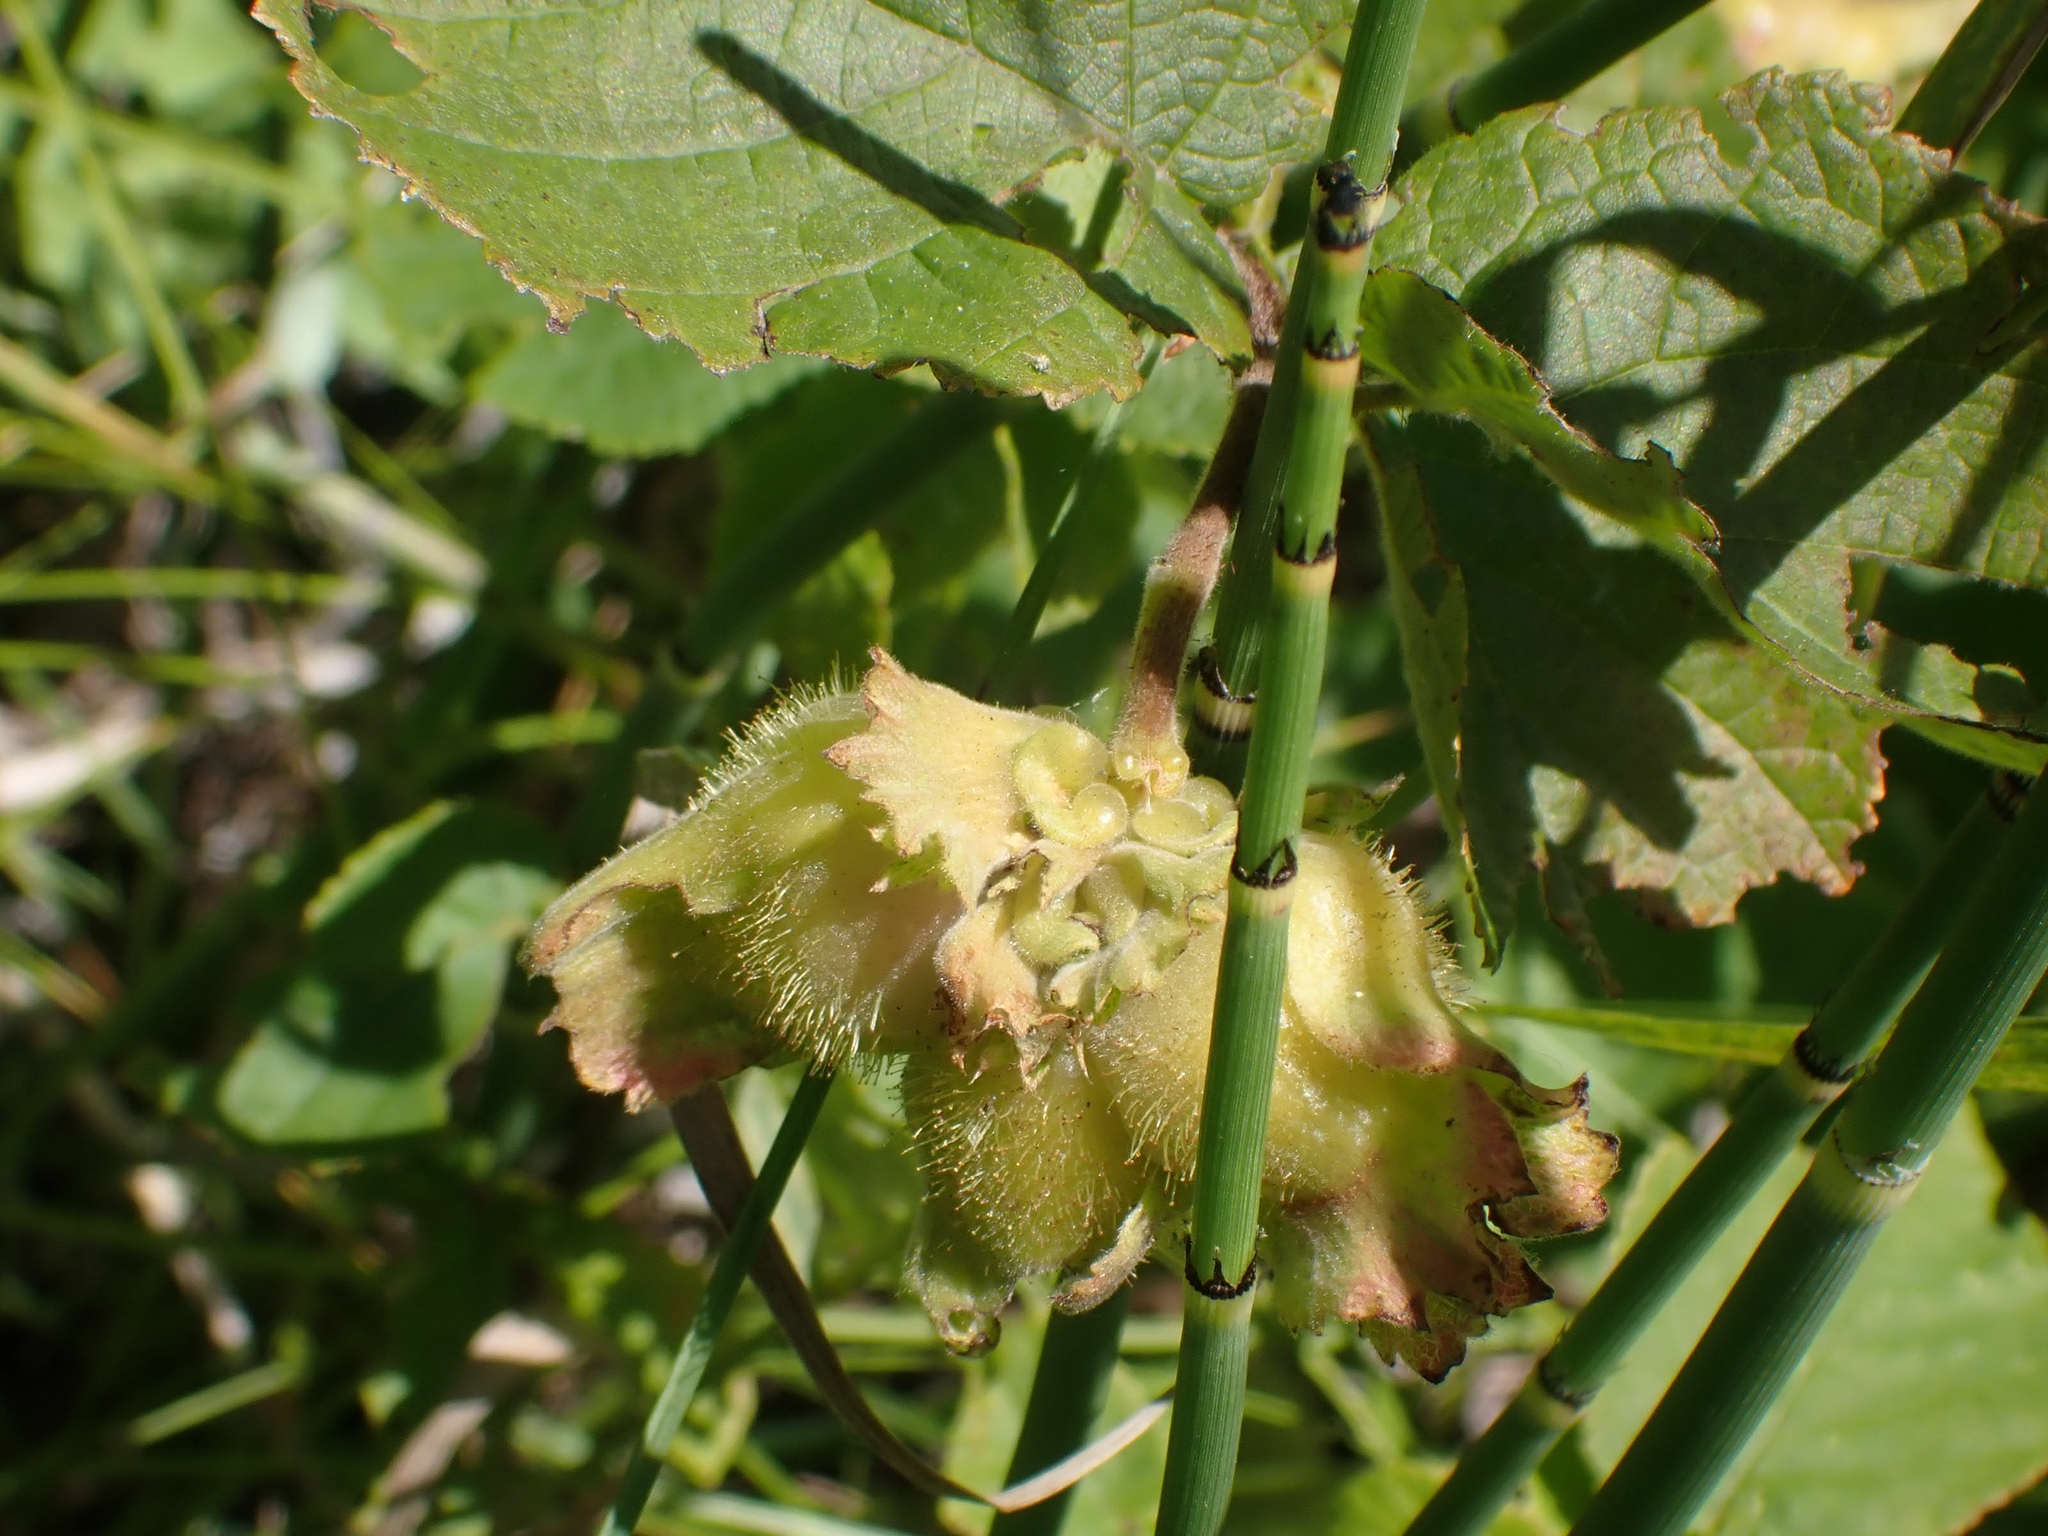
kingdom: Plantae
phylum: Tracheophyta
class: Magnoliopsida
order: Fagales
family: Betulaceae
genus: Corylus
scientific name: Corylus americana
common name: American hazel
